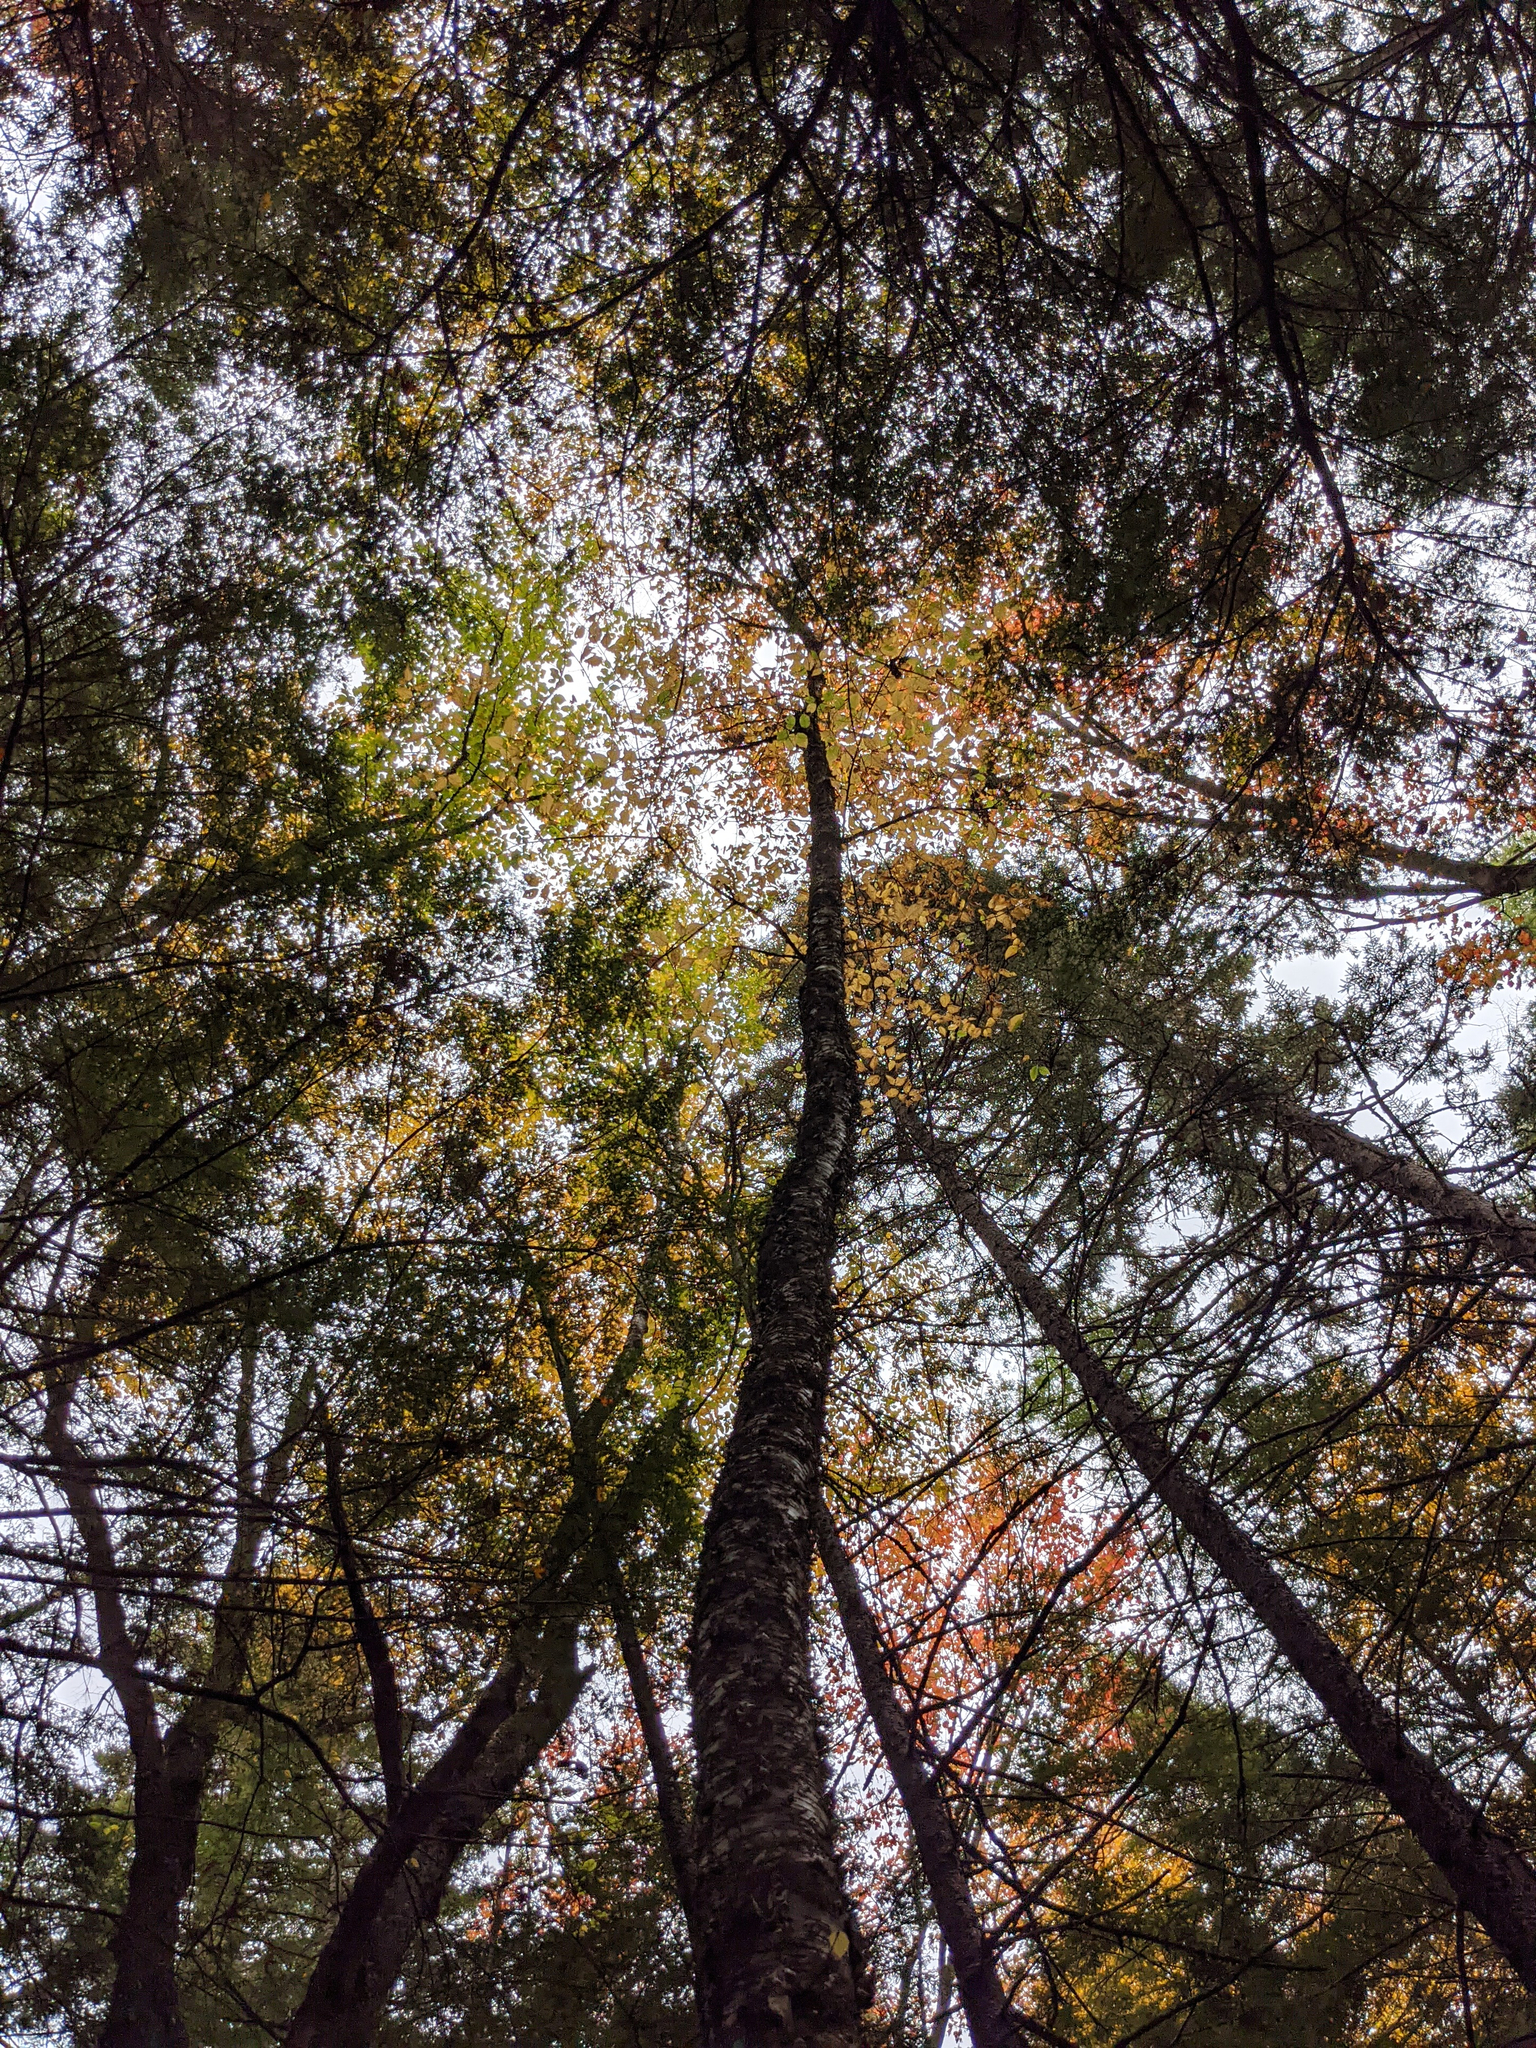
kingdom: Plantae
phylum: Tracheophyta
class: Magnoliopsida
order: Fagales
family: Betulaceae
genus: Betula
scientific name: Betula alleghaniensis
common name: Yellow birch
